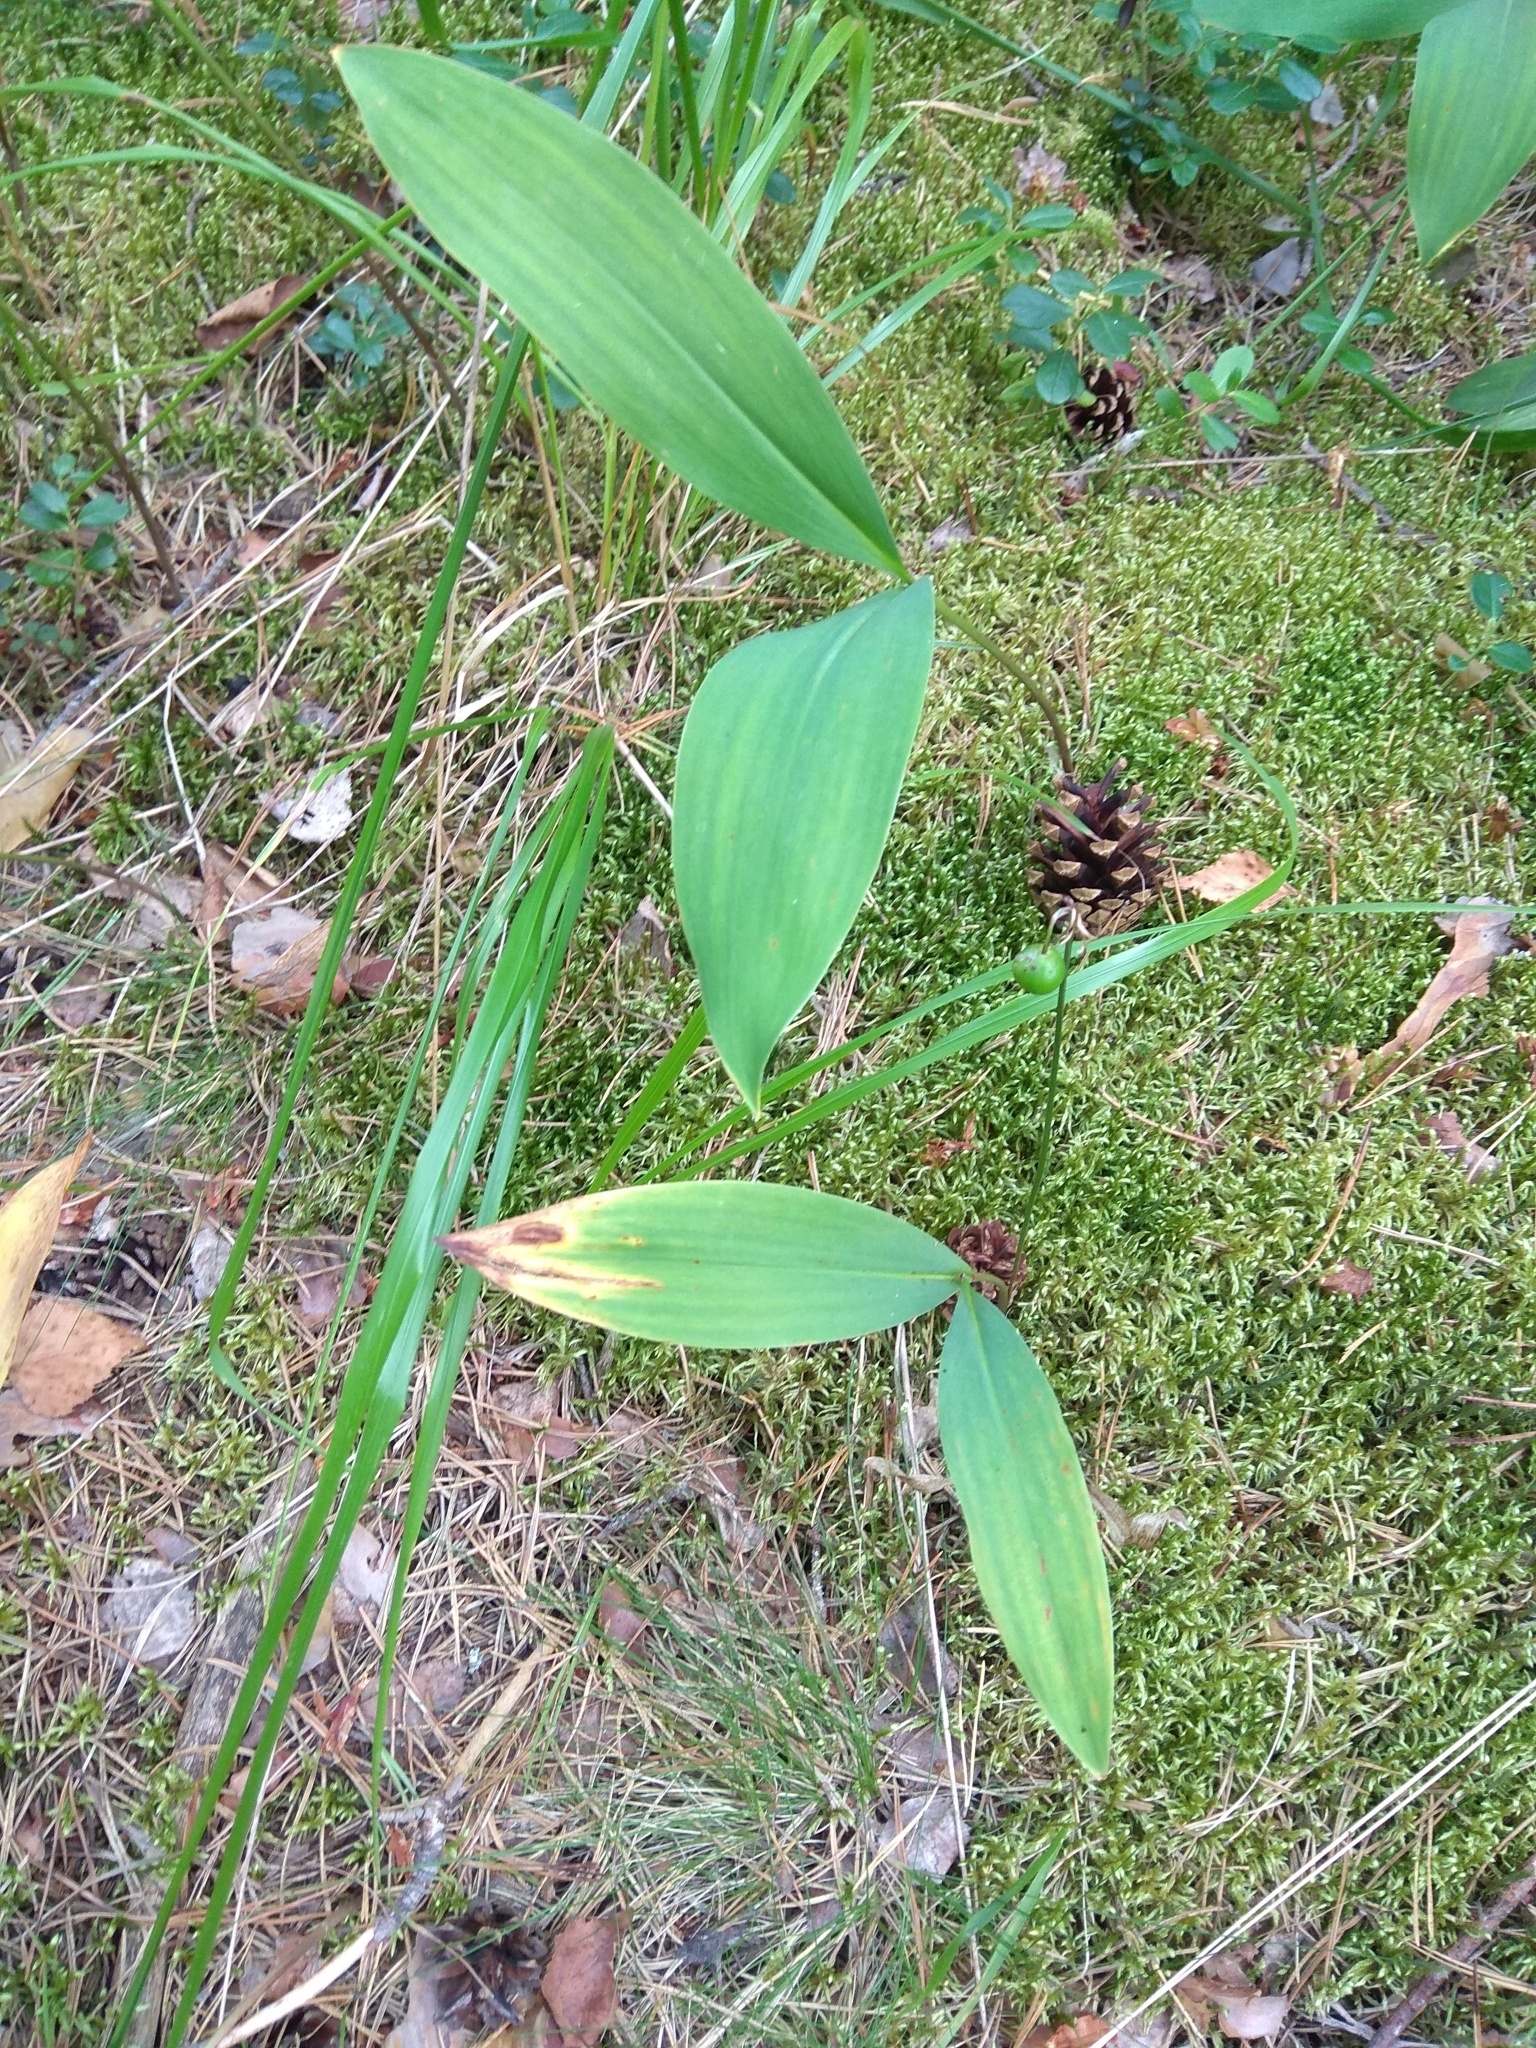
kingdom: Plantae
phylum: Tracheophyta
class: Liliopsida
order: Asparagales
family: Asparagaceae
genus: Convallaria
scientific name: Convallaria majalis
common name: Lily-of-the-valley
